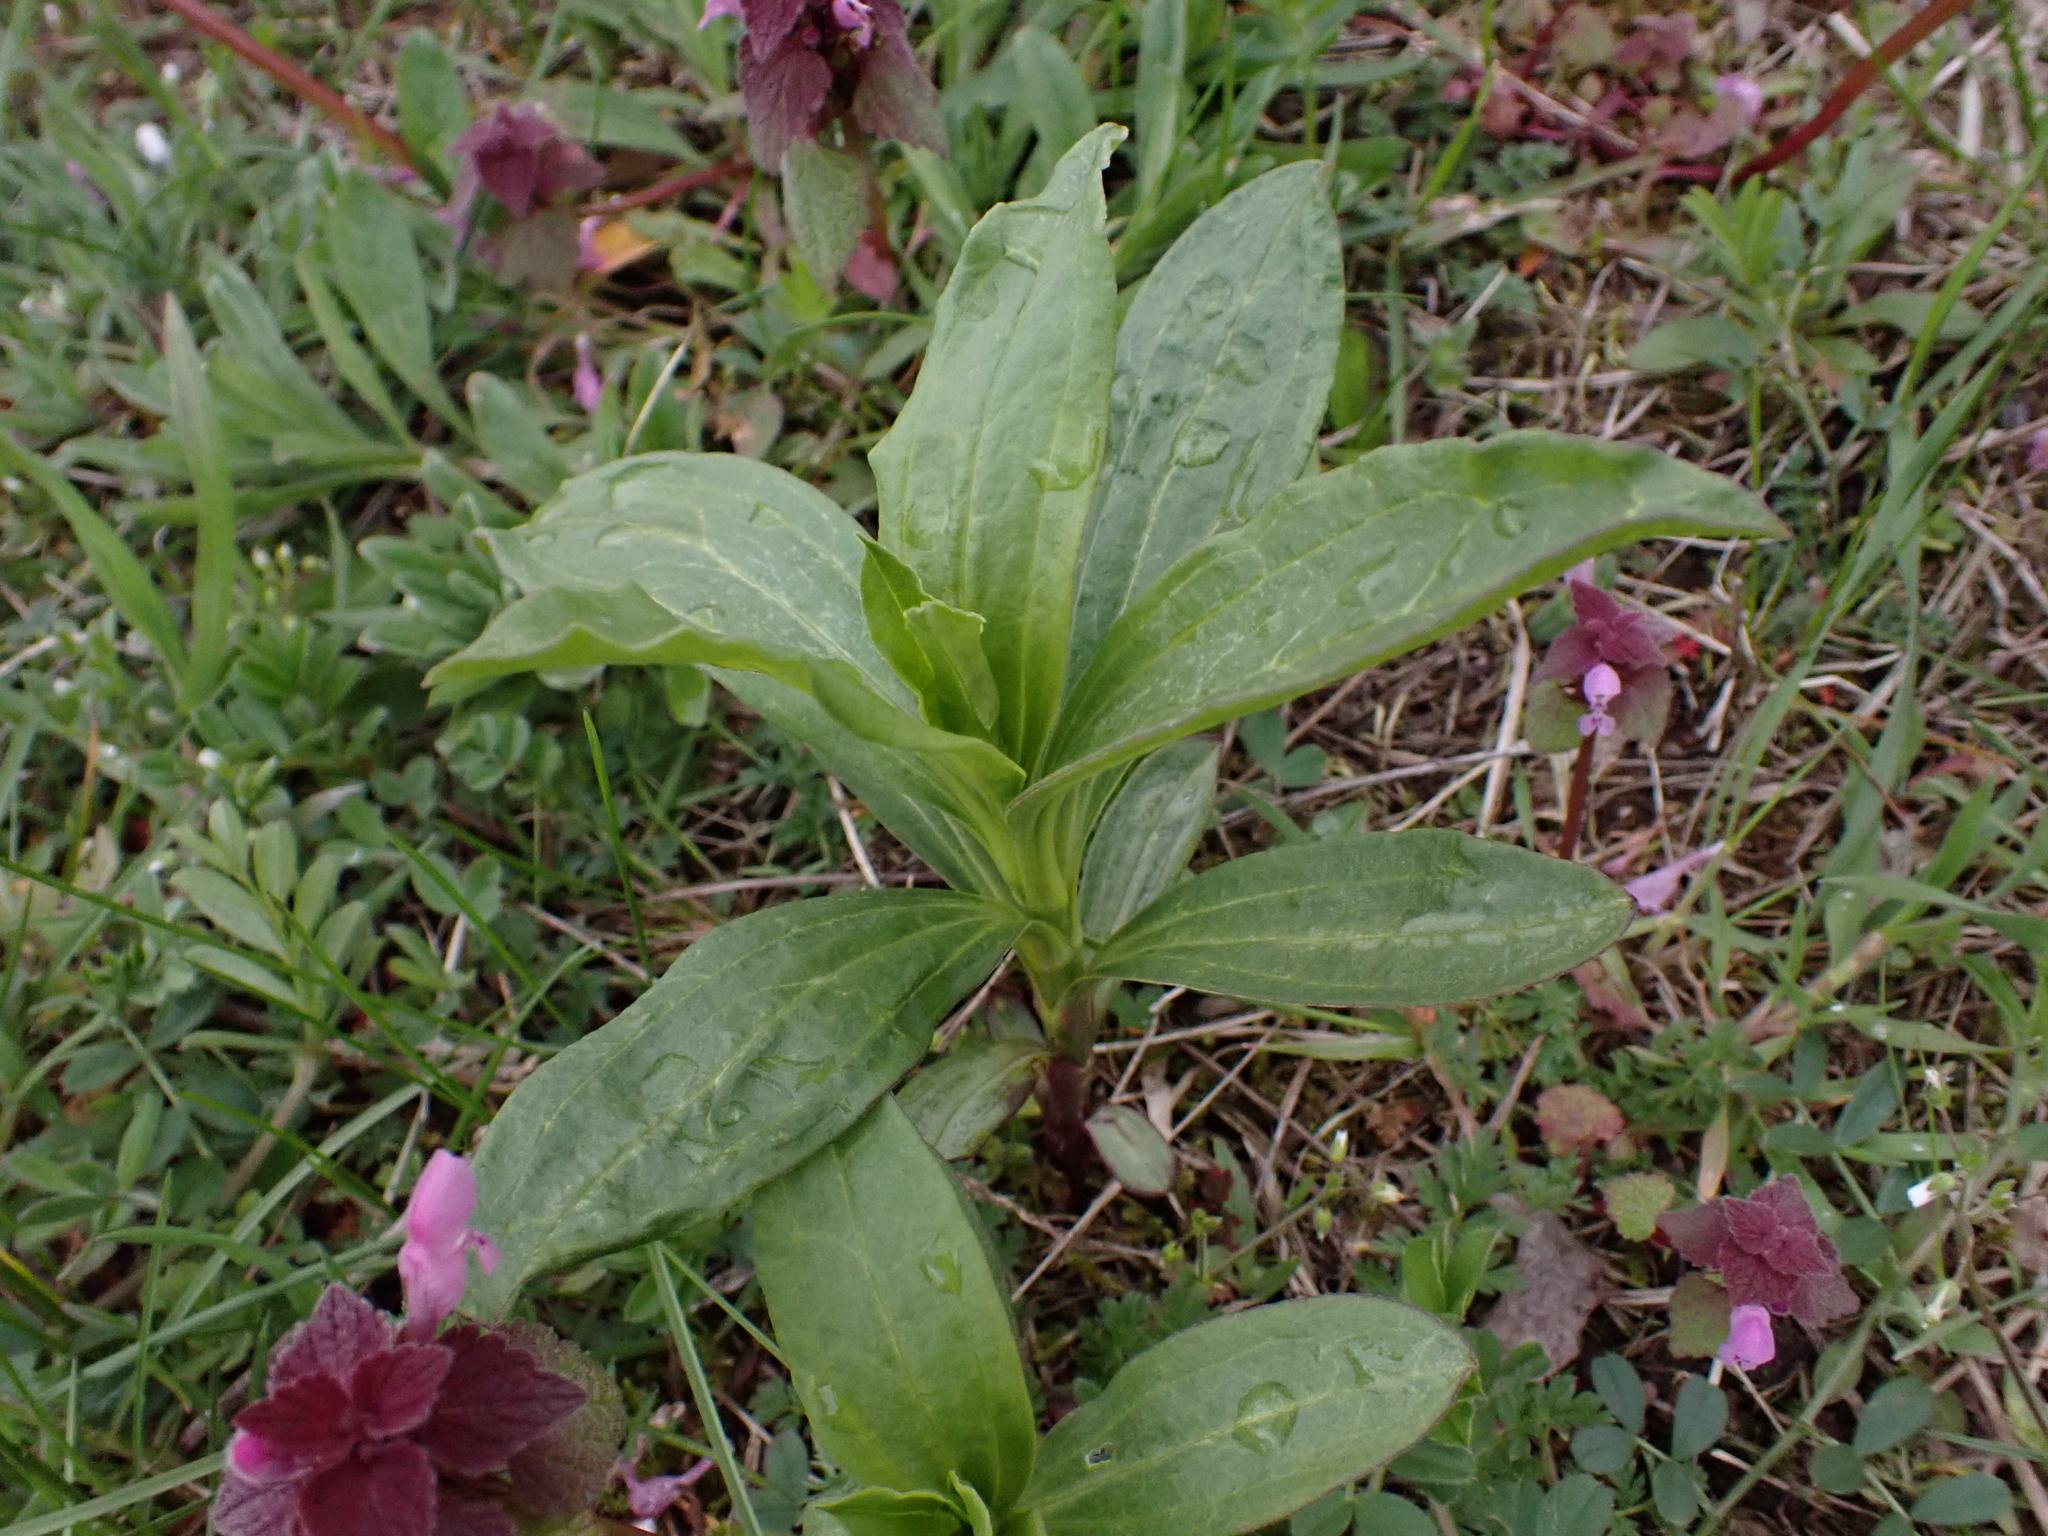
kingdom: Plantae
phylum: Tracheophyta
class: Magnoliopsida
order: Caryophyllales
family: Caryophyllaceae
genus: Saponaria
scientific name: Saponaria officinalis
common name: Soapwort
